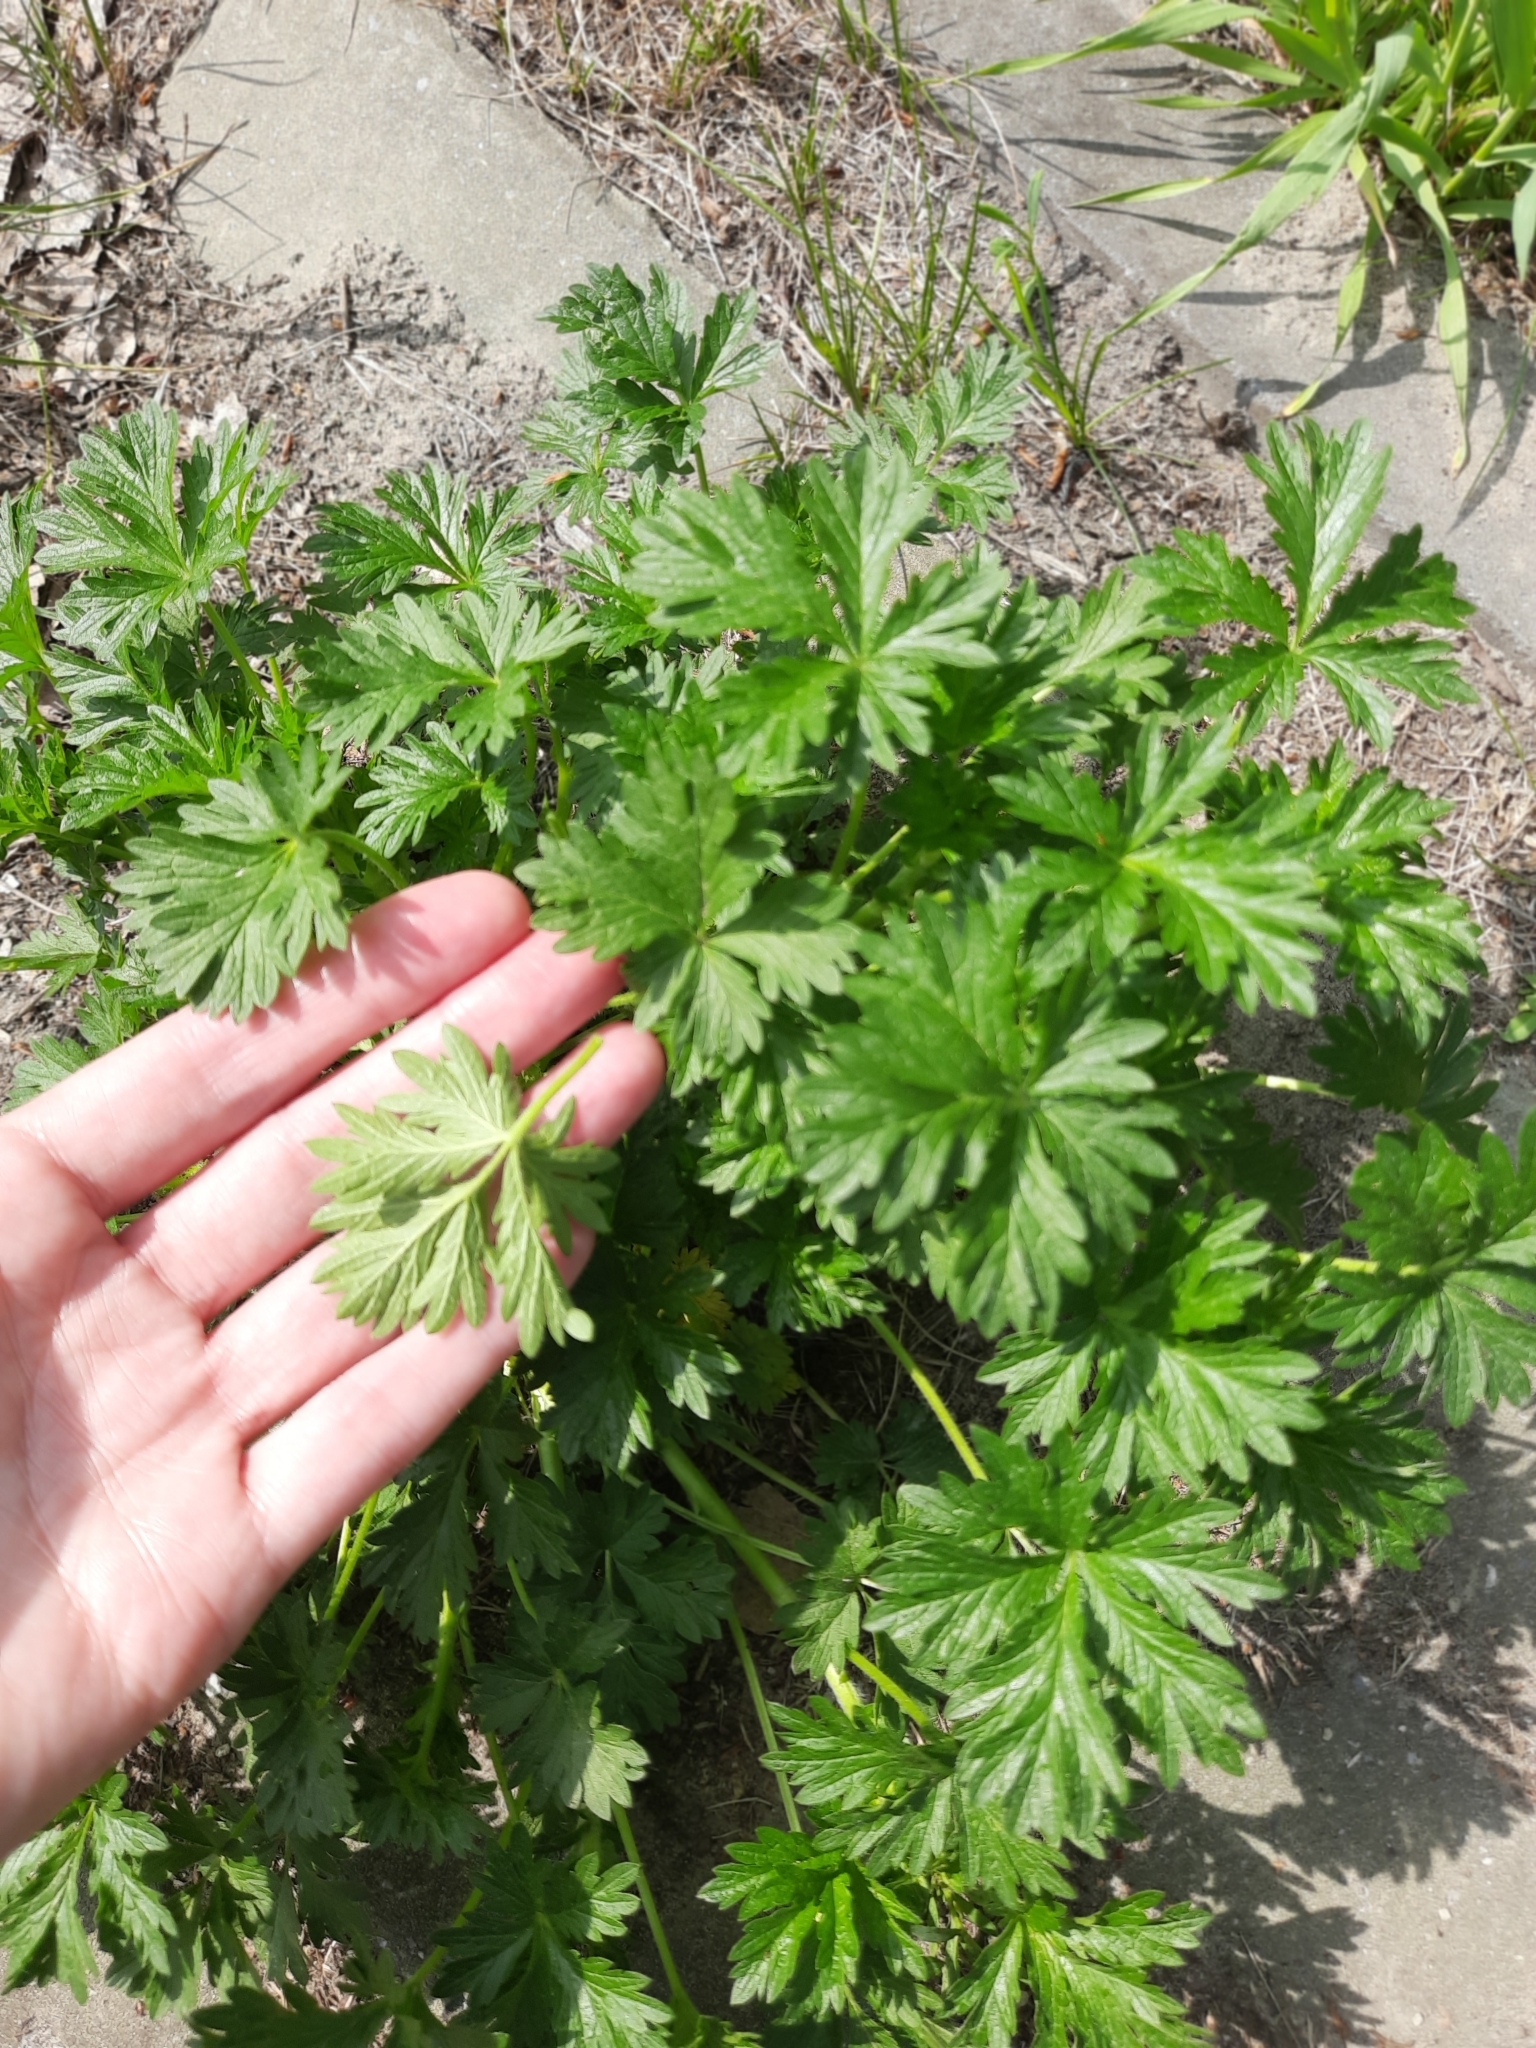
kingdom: Plantae
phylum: Tracheophyta
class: Magnoliopsida
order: Rosales
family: Rosaceae
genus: Potentilla
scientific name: Potentilla intermedia
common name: Downy cinquefoil
